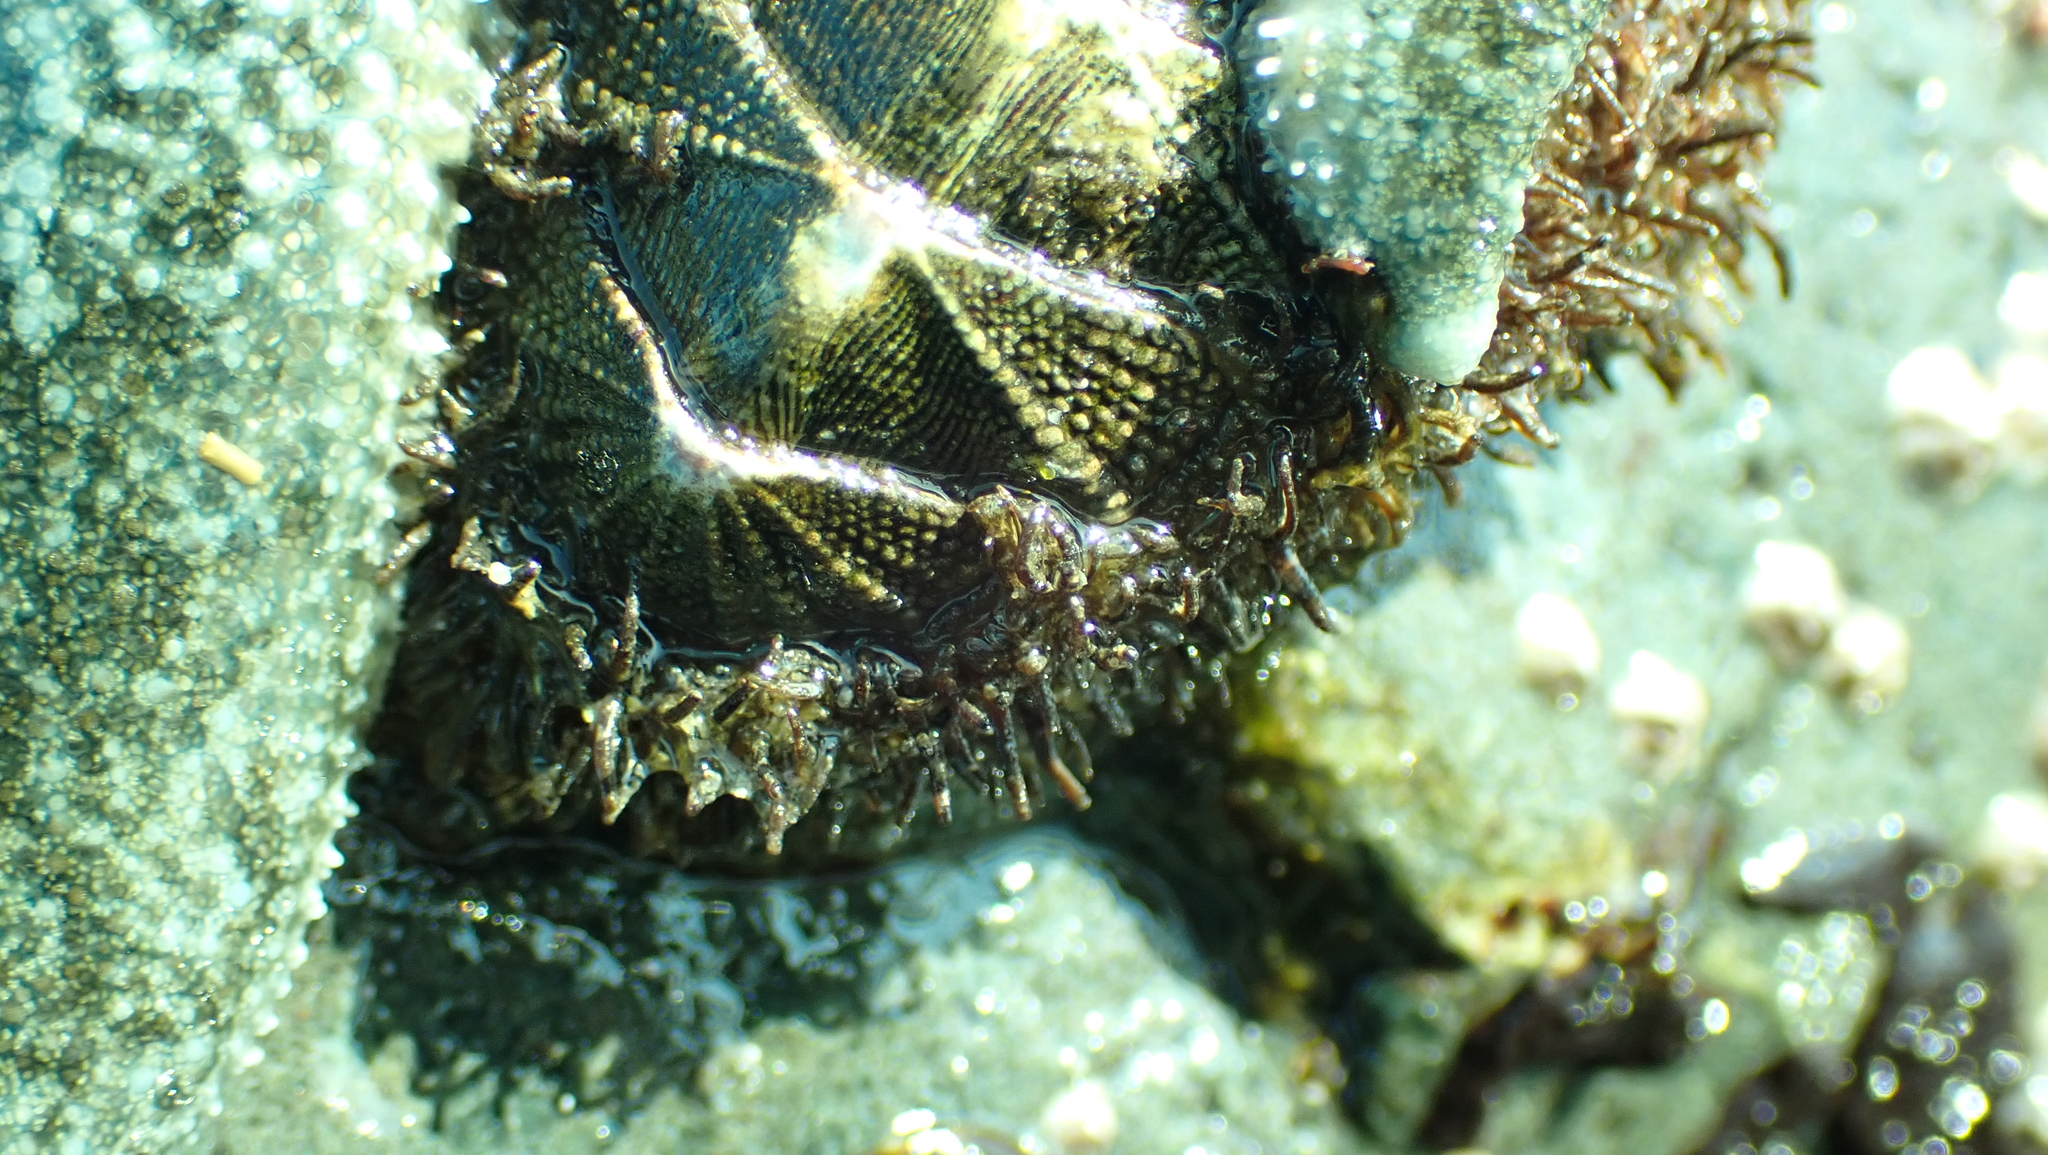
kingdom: Animalia
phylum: Mollusca
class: Polyplacophora
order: Chitonida
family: Mopaliidae
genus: Mopalia
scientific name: Mopalia muscosa
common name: Mossy chiton
